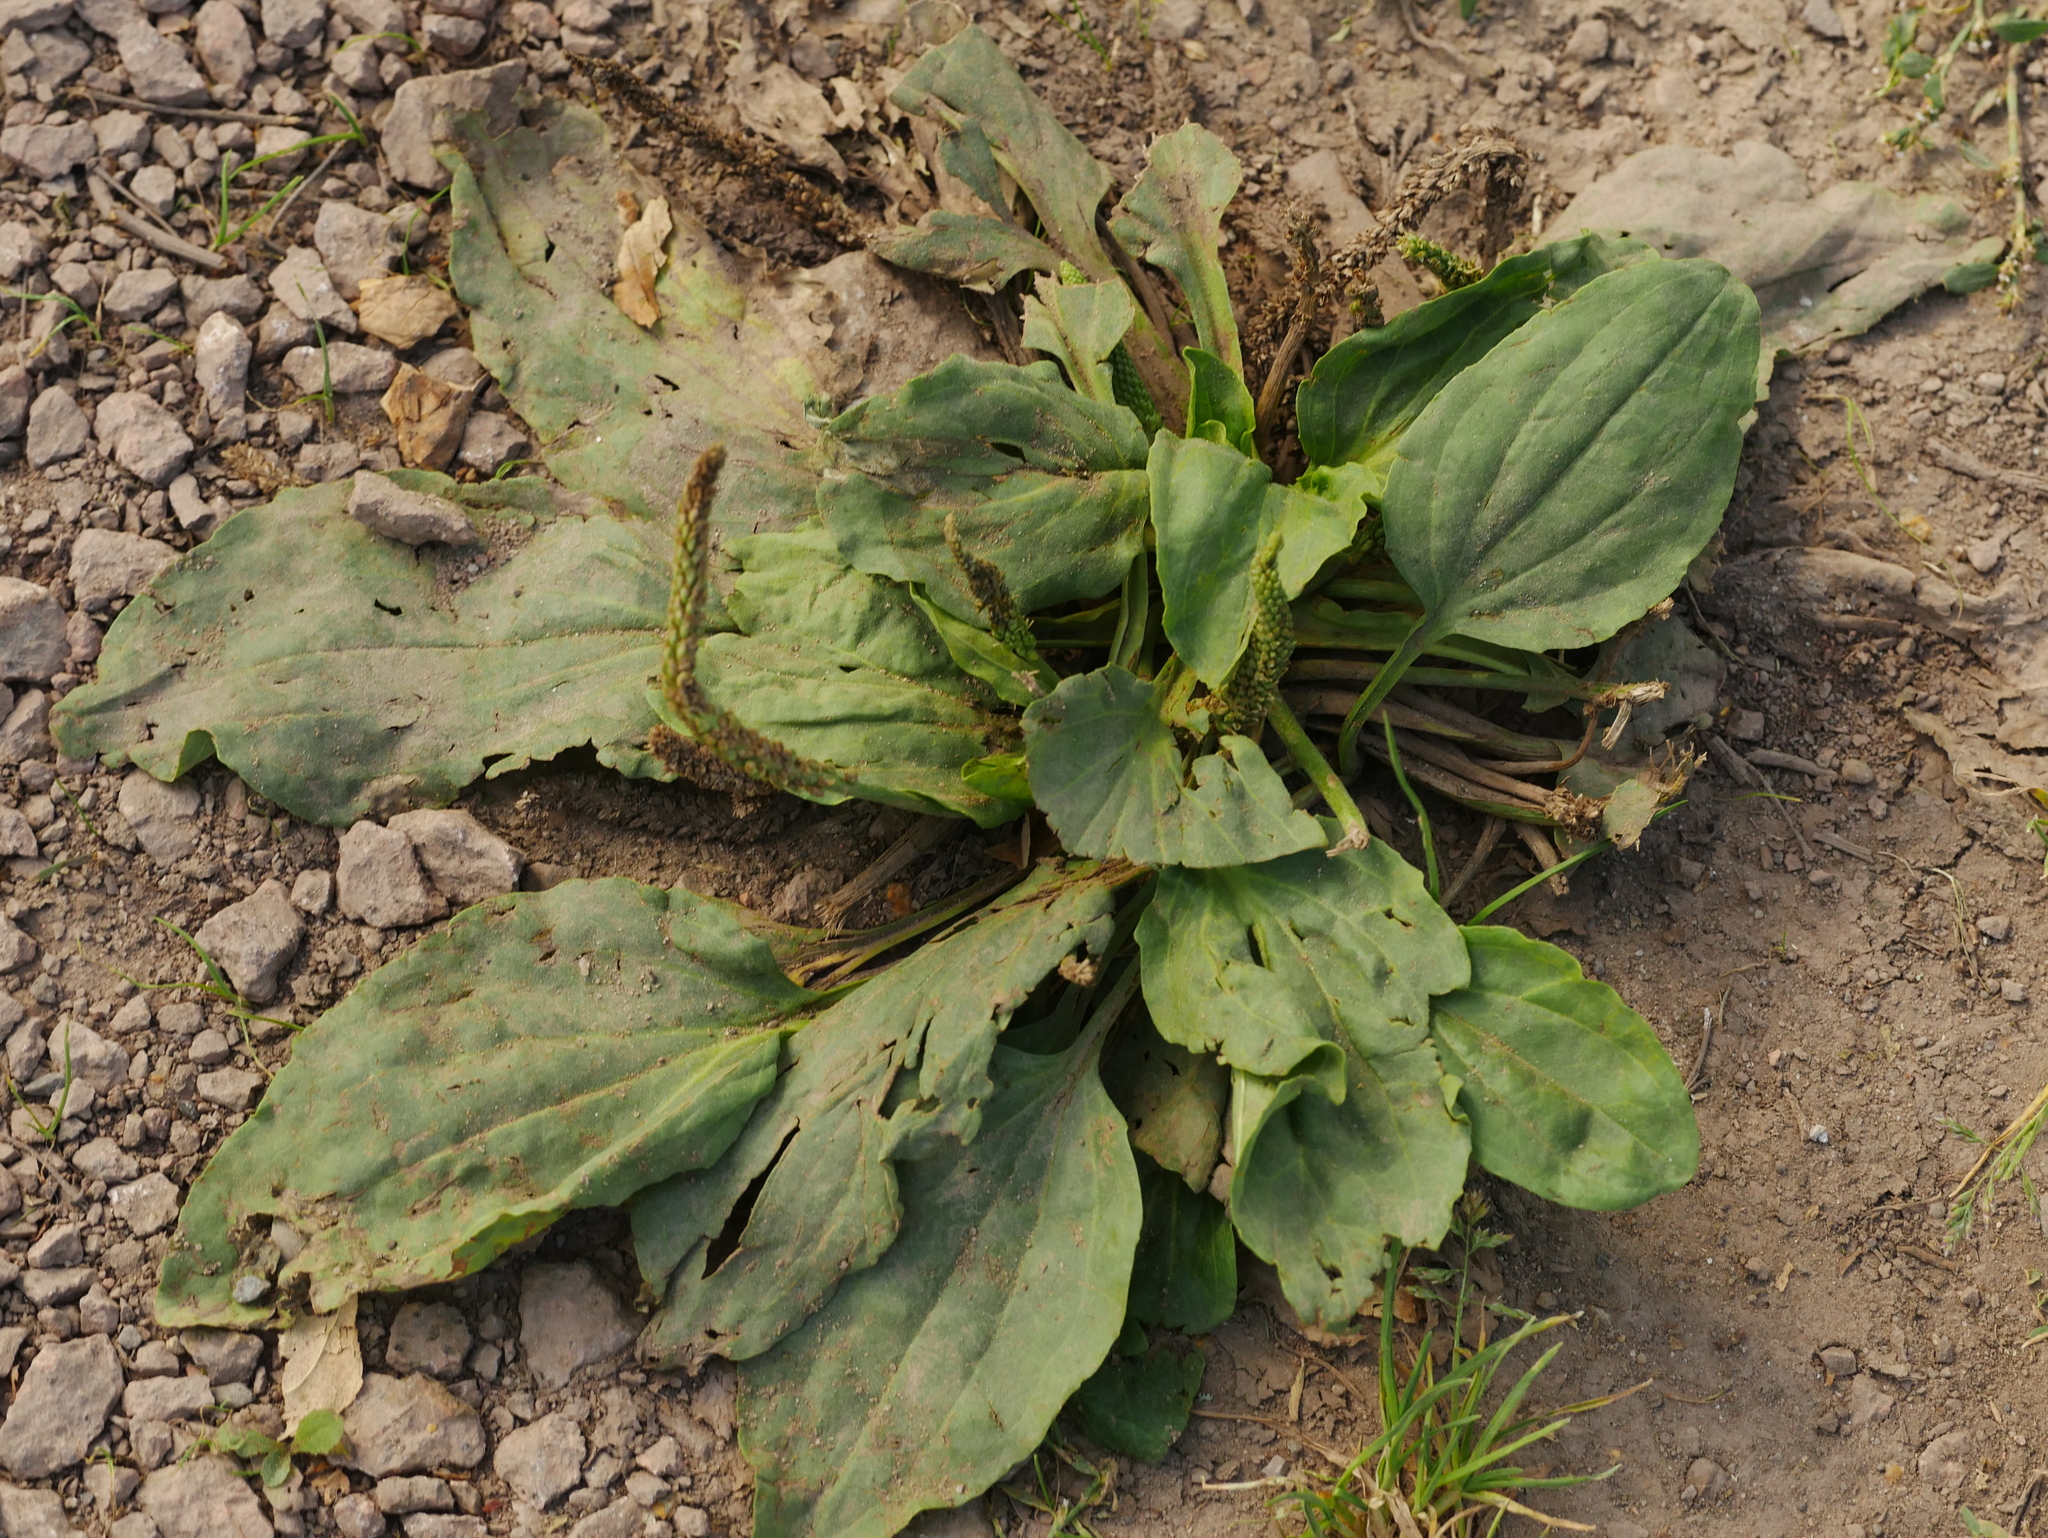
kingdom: Plantae
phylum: Tracheophyta
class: Magnoliopsida
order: Lamiales
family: Plantaginaceae
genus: Plantago
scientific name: Plantago major
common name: Common plantain
